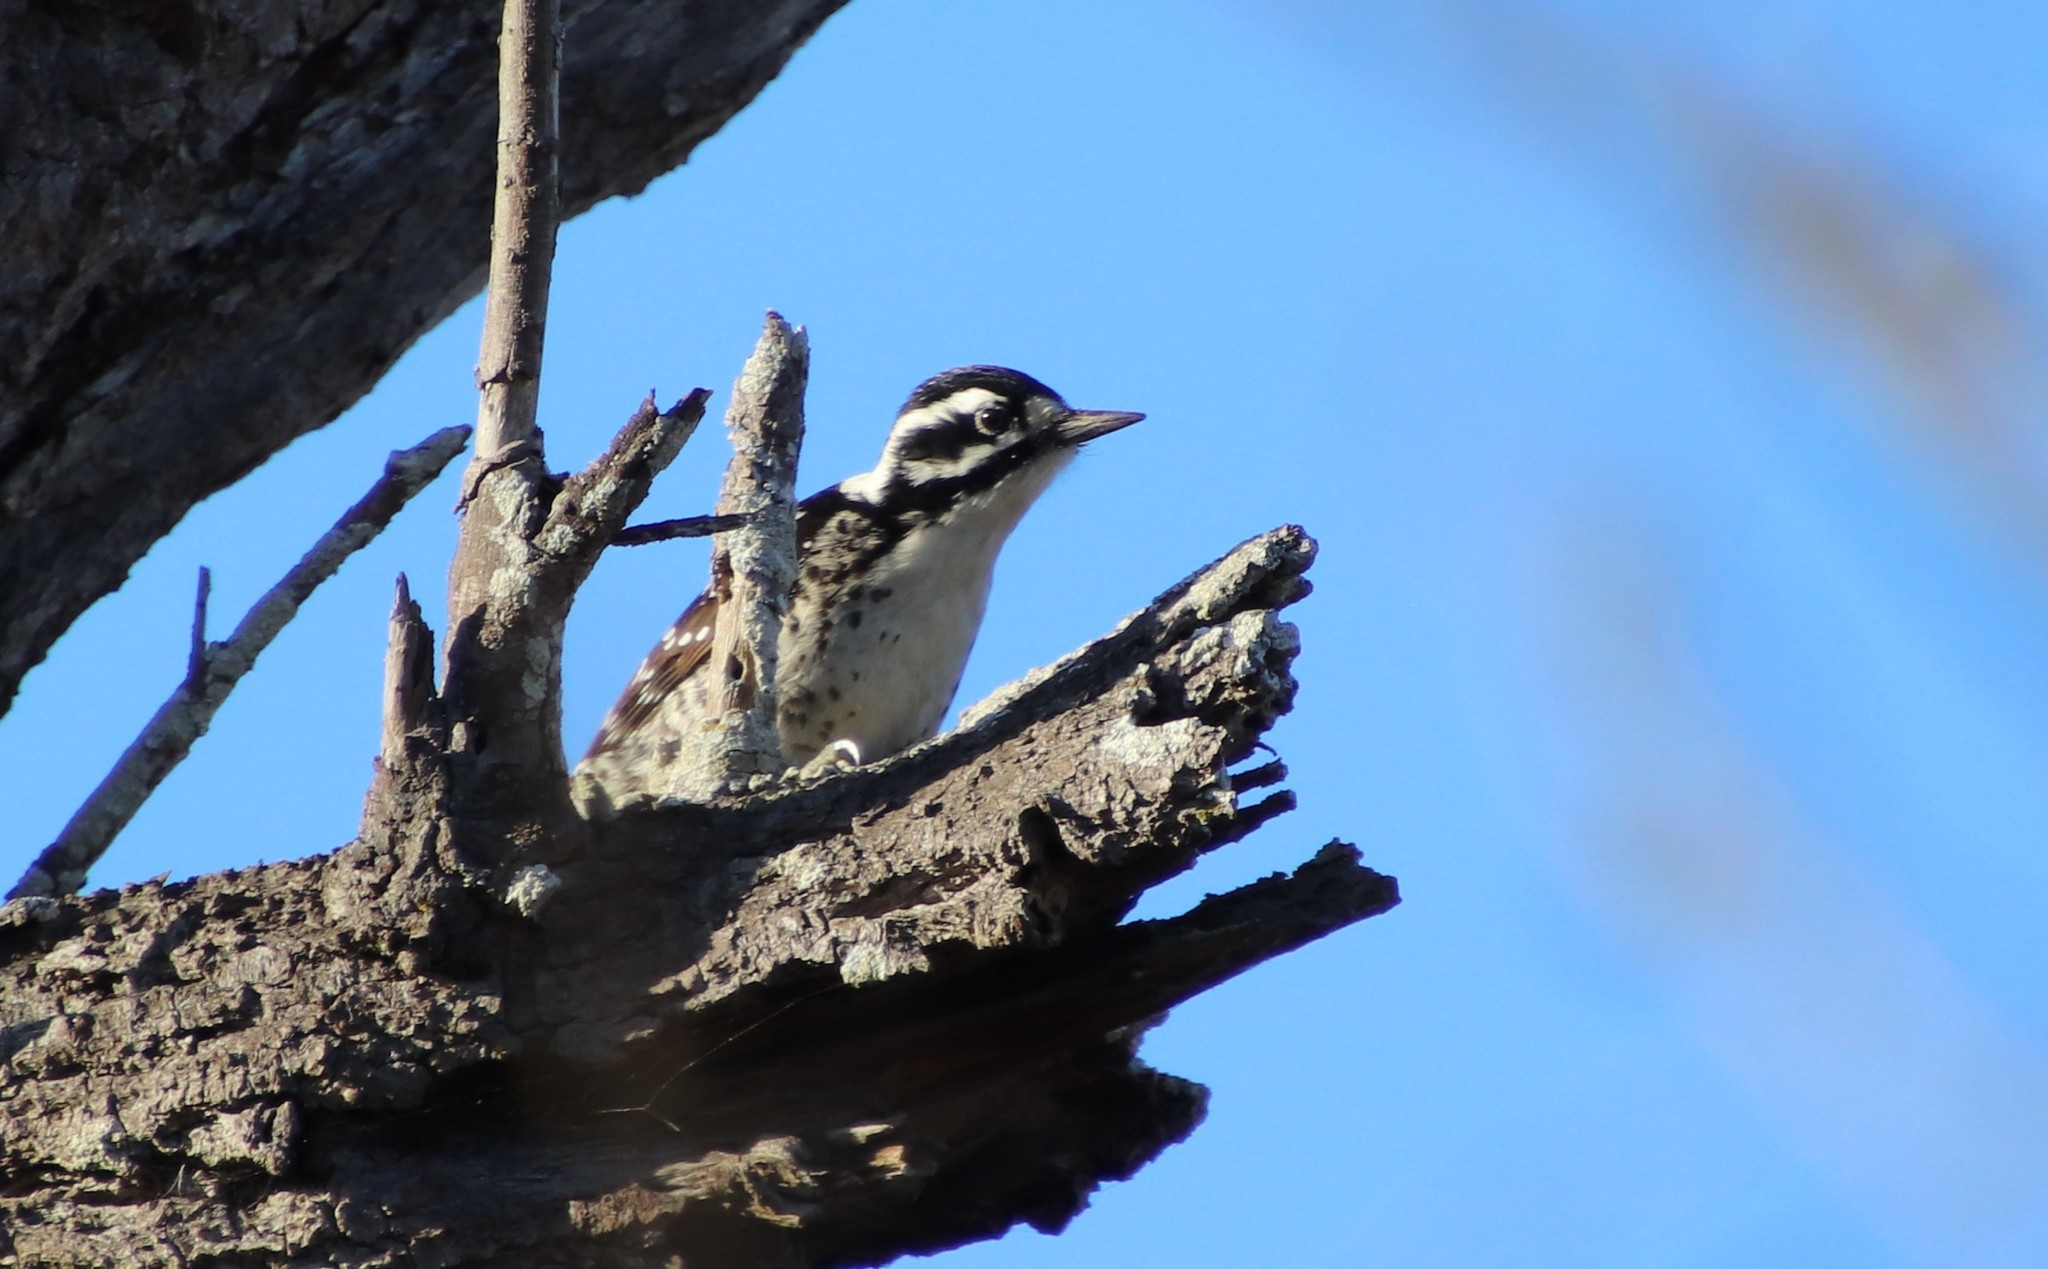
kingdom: Animalia
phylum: Chordata
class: Aves
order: Piciformes
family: Picidae
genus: Dryobates
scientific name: Dryobates nuttallii
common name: Nuttall's woodpecker
